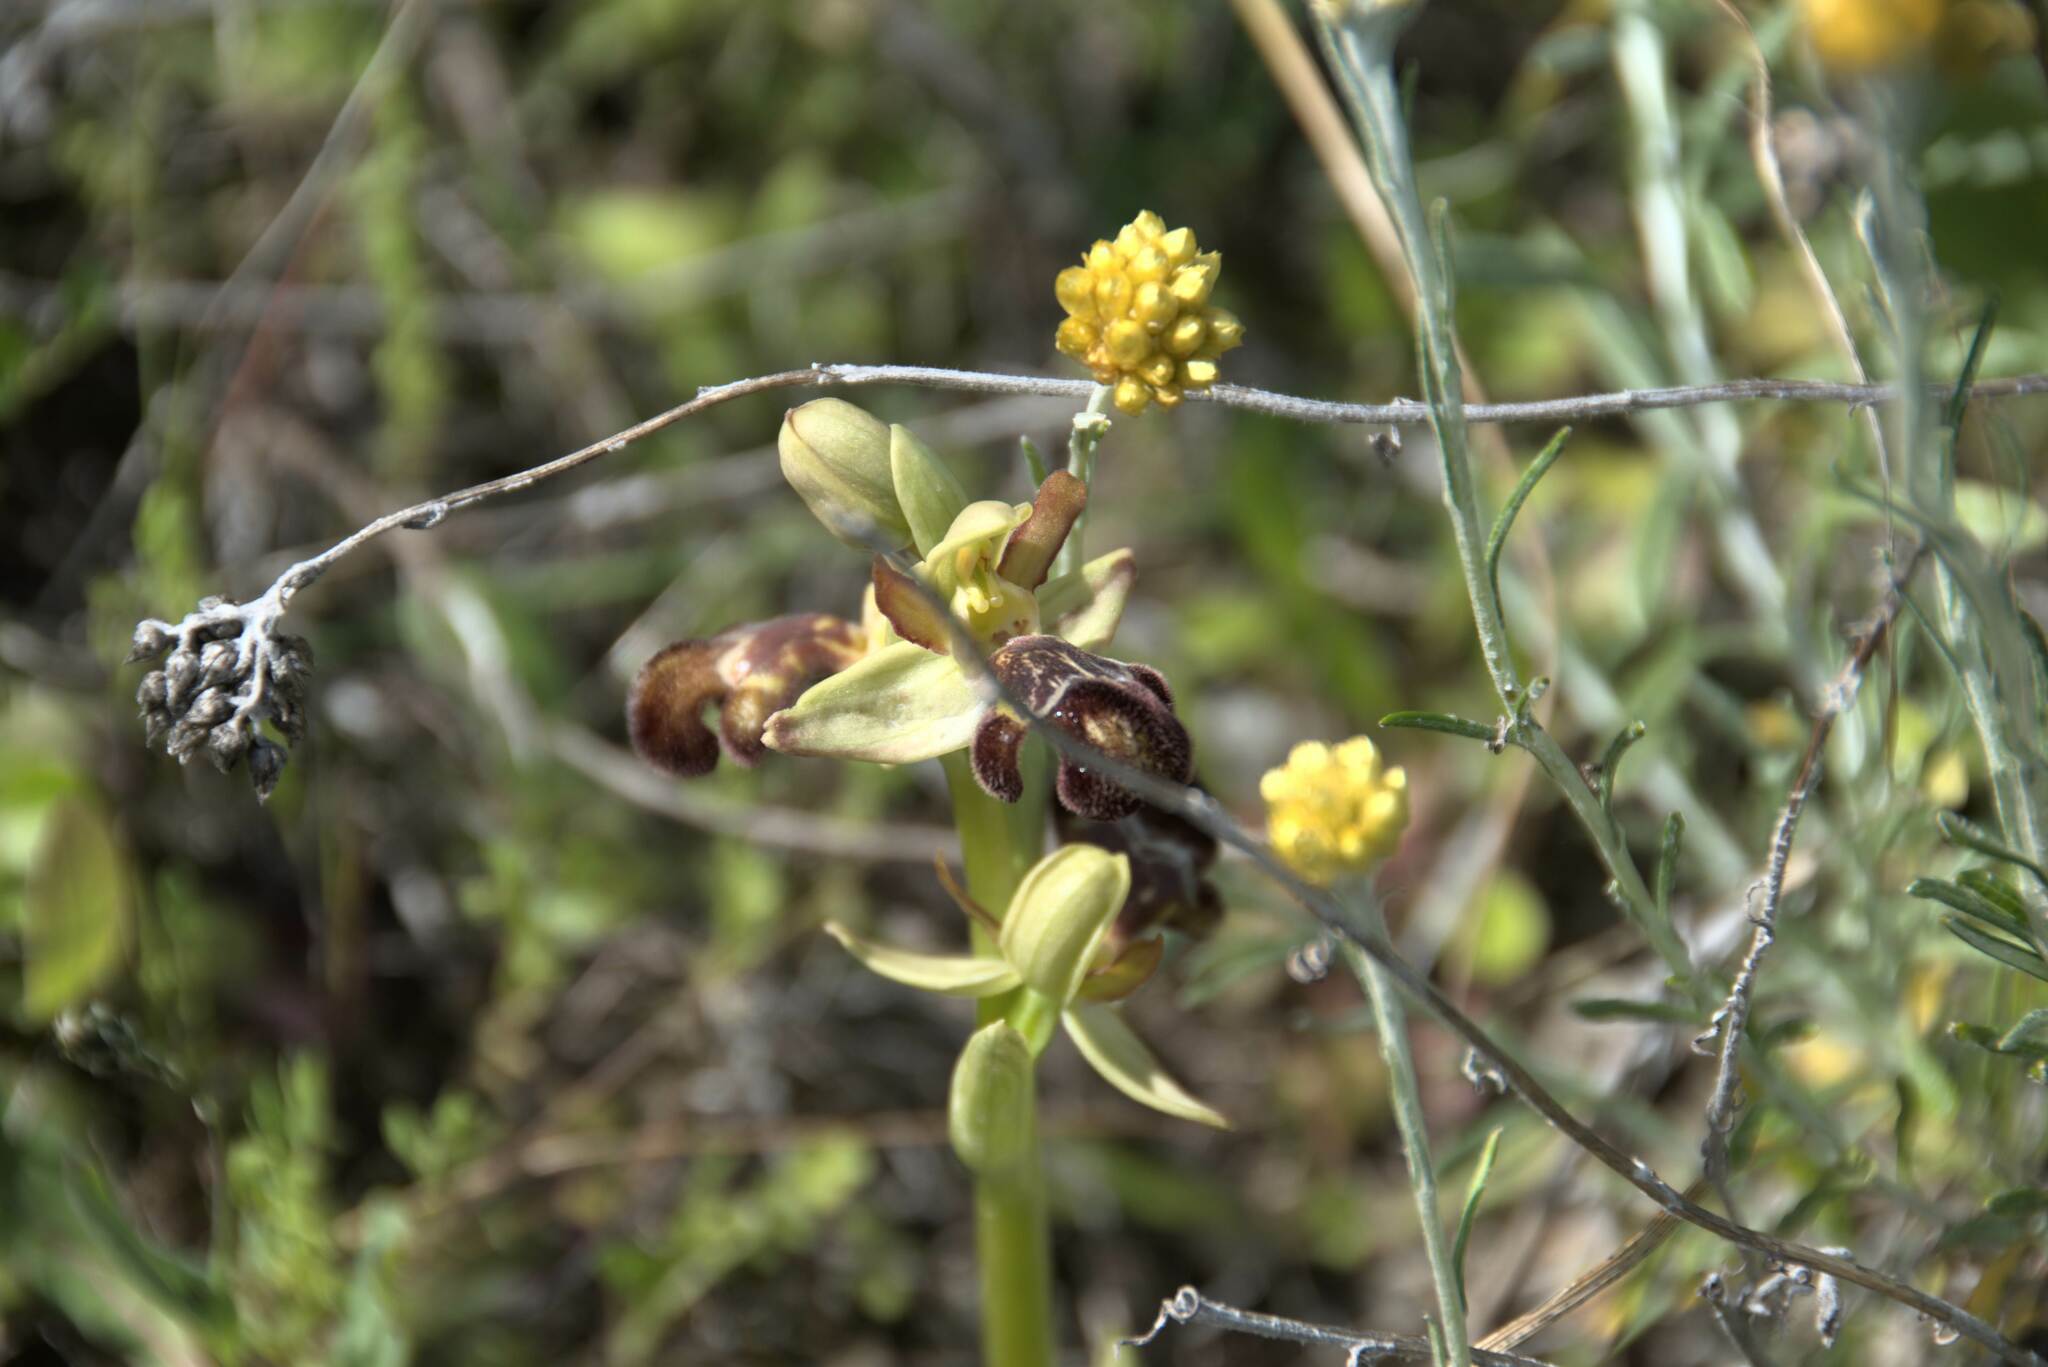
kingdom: Plantae
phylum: Tracheophyta
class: Liliopsida
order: Asparagales
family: Orchidaceae
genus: Ophrys
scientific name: Ophrys omegaifera
